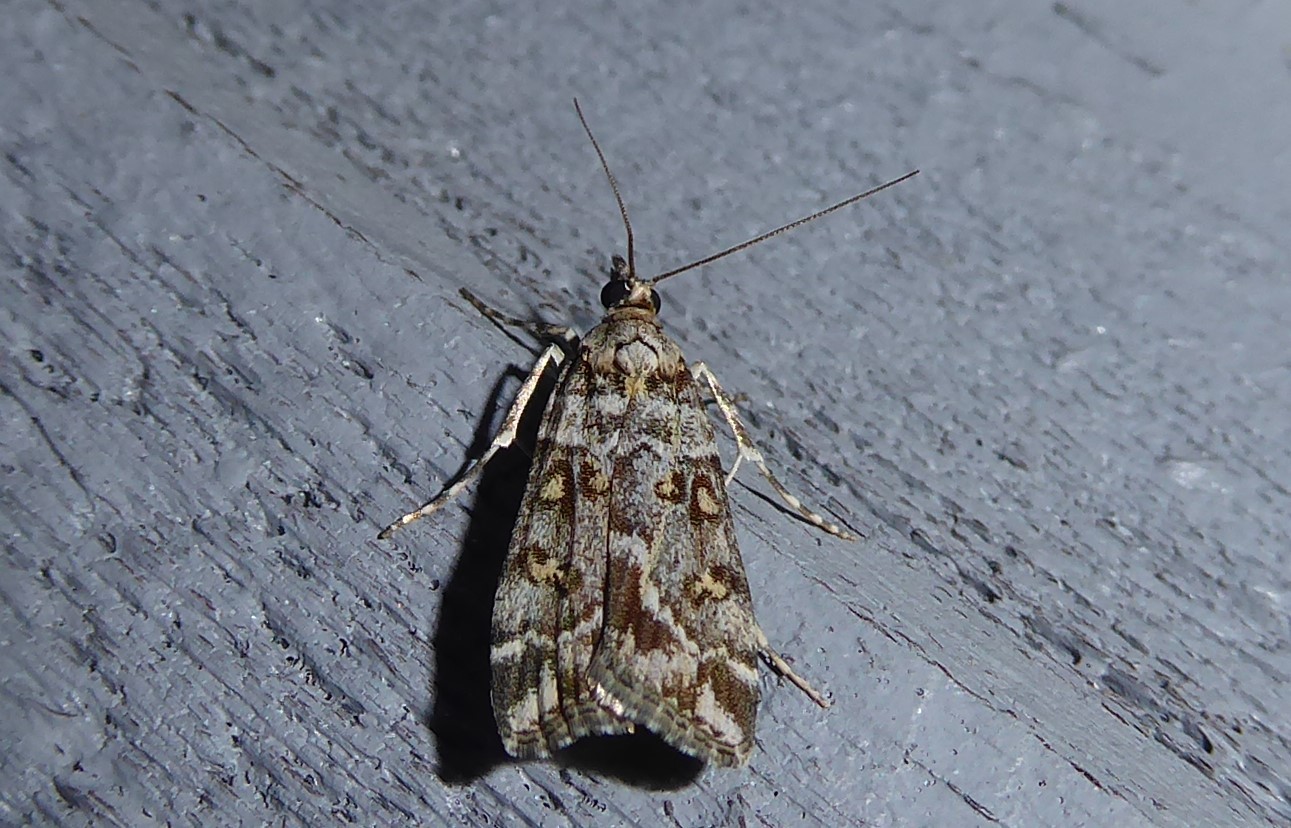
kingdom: Animalia
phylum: Arthropoda
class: Insecta
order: Lepidoptera
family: Crambidae
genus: Eudonia
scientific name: Eudonia diphtheralis
